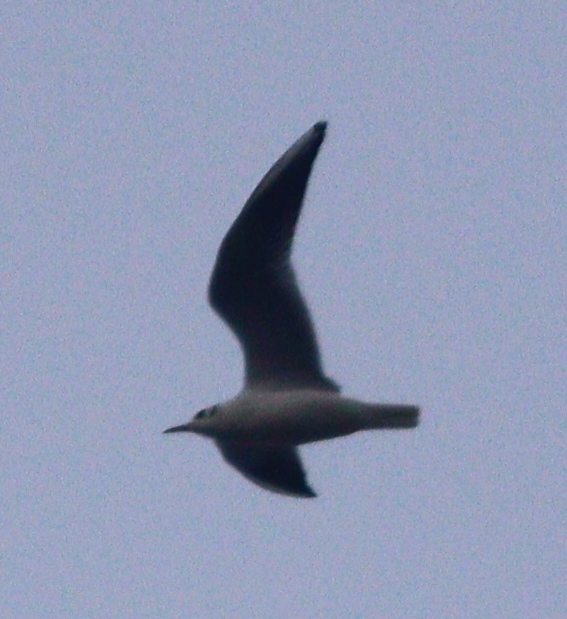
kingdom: Animalia
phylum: Chordata
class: Aves
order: Charadriiformes
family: Laridae
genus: Chroicocephalus
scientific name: Chroicocephalus ridibundus
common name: Black-headed gull
